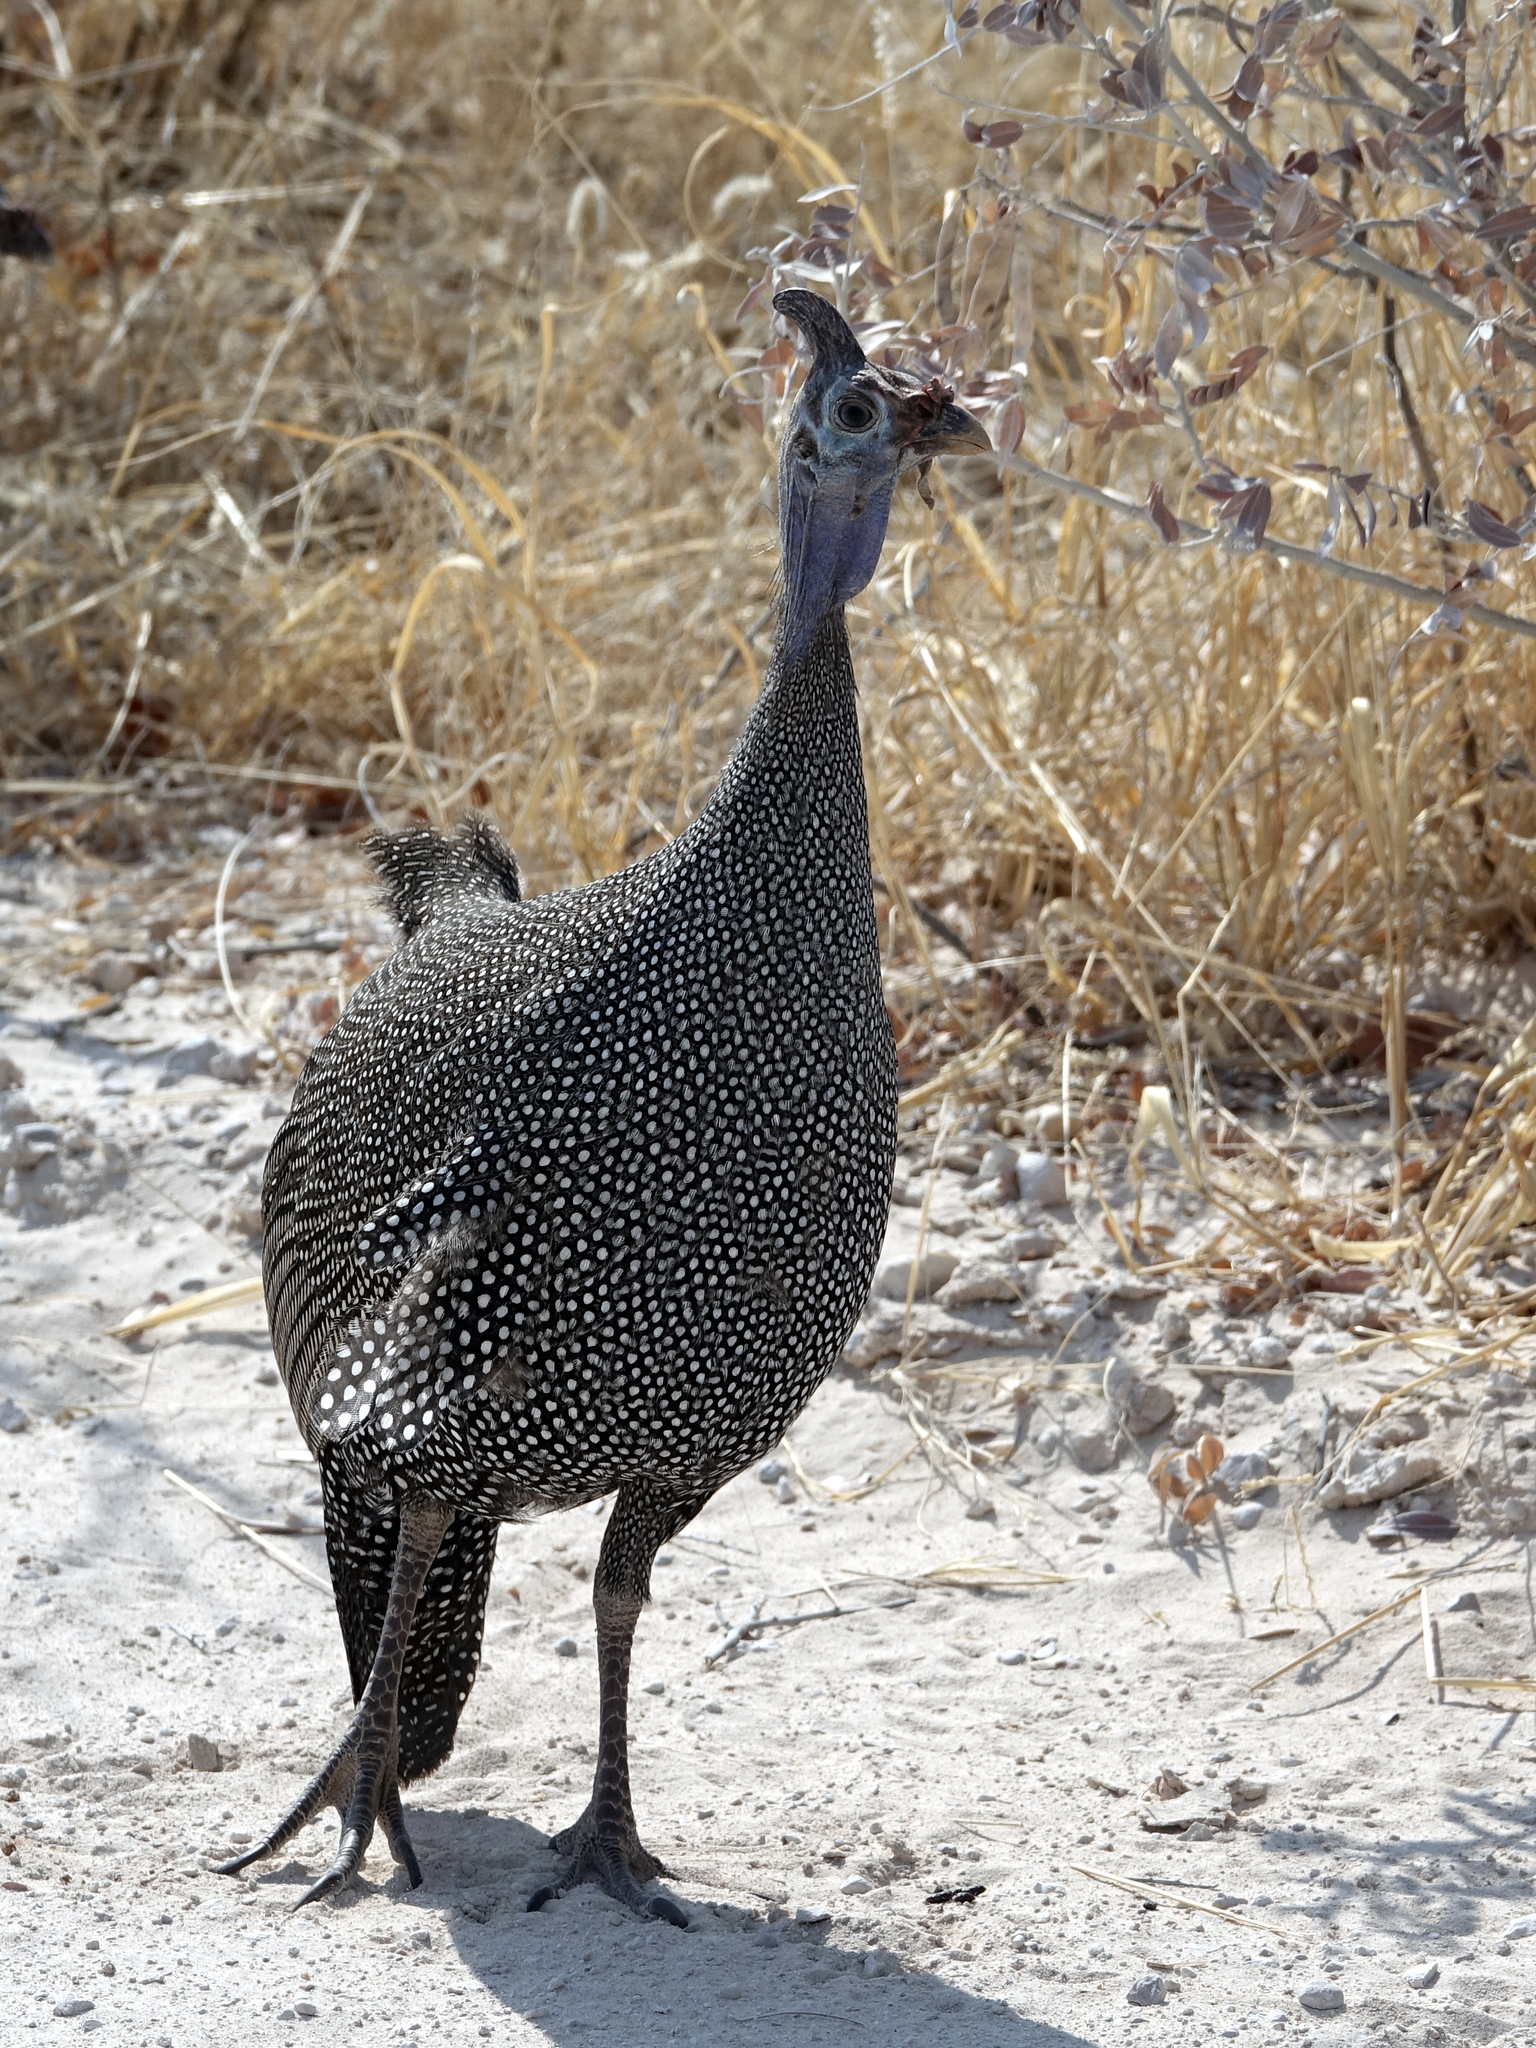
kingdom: Animalia
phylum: Chordata
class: Aves
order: Galliformes
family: Numididae
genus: Numida
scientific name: Numida meleagris
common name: Helmeted guineafowl
